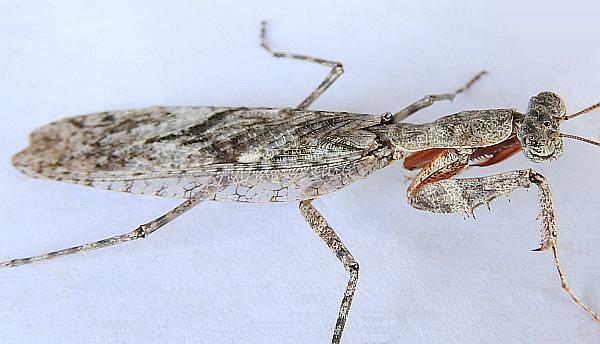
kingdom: Animalia
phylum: Arthropoda
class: Insecta
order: Mantodea
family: Epaphroditidae
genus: Gonatista
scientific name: Gonatista grisea
